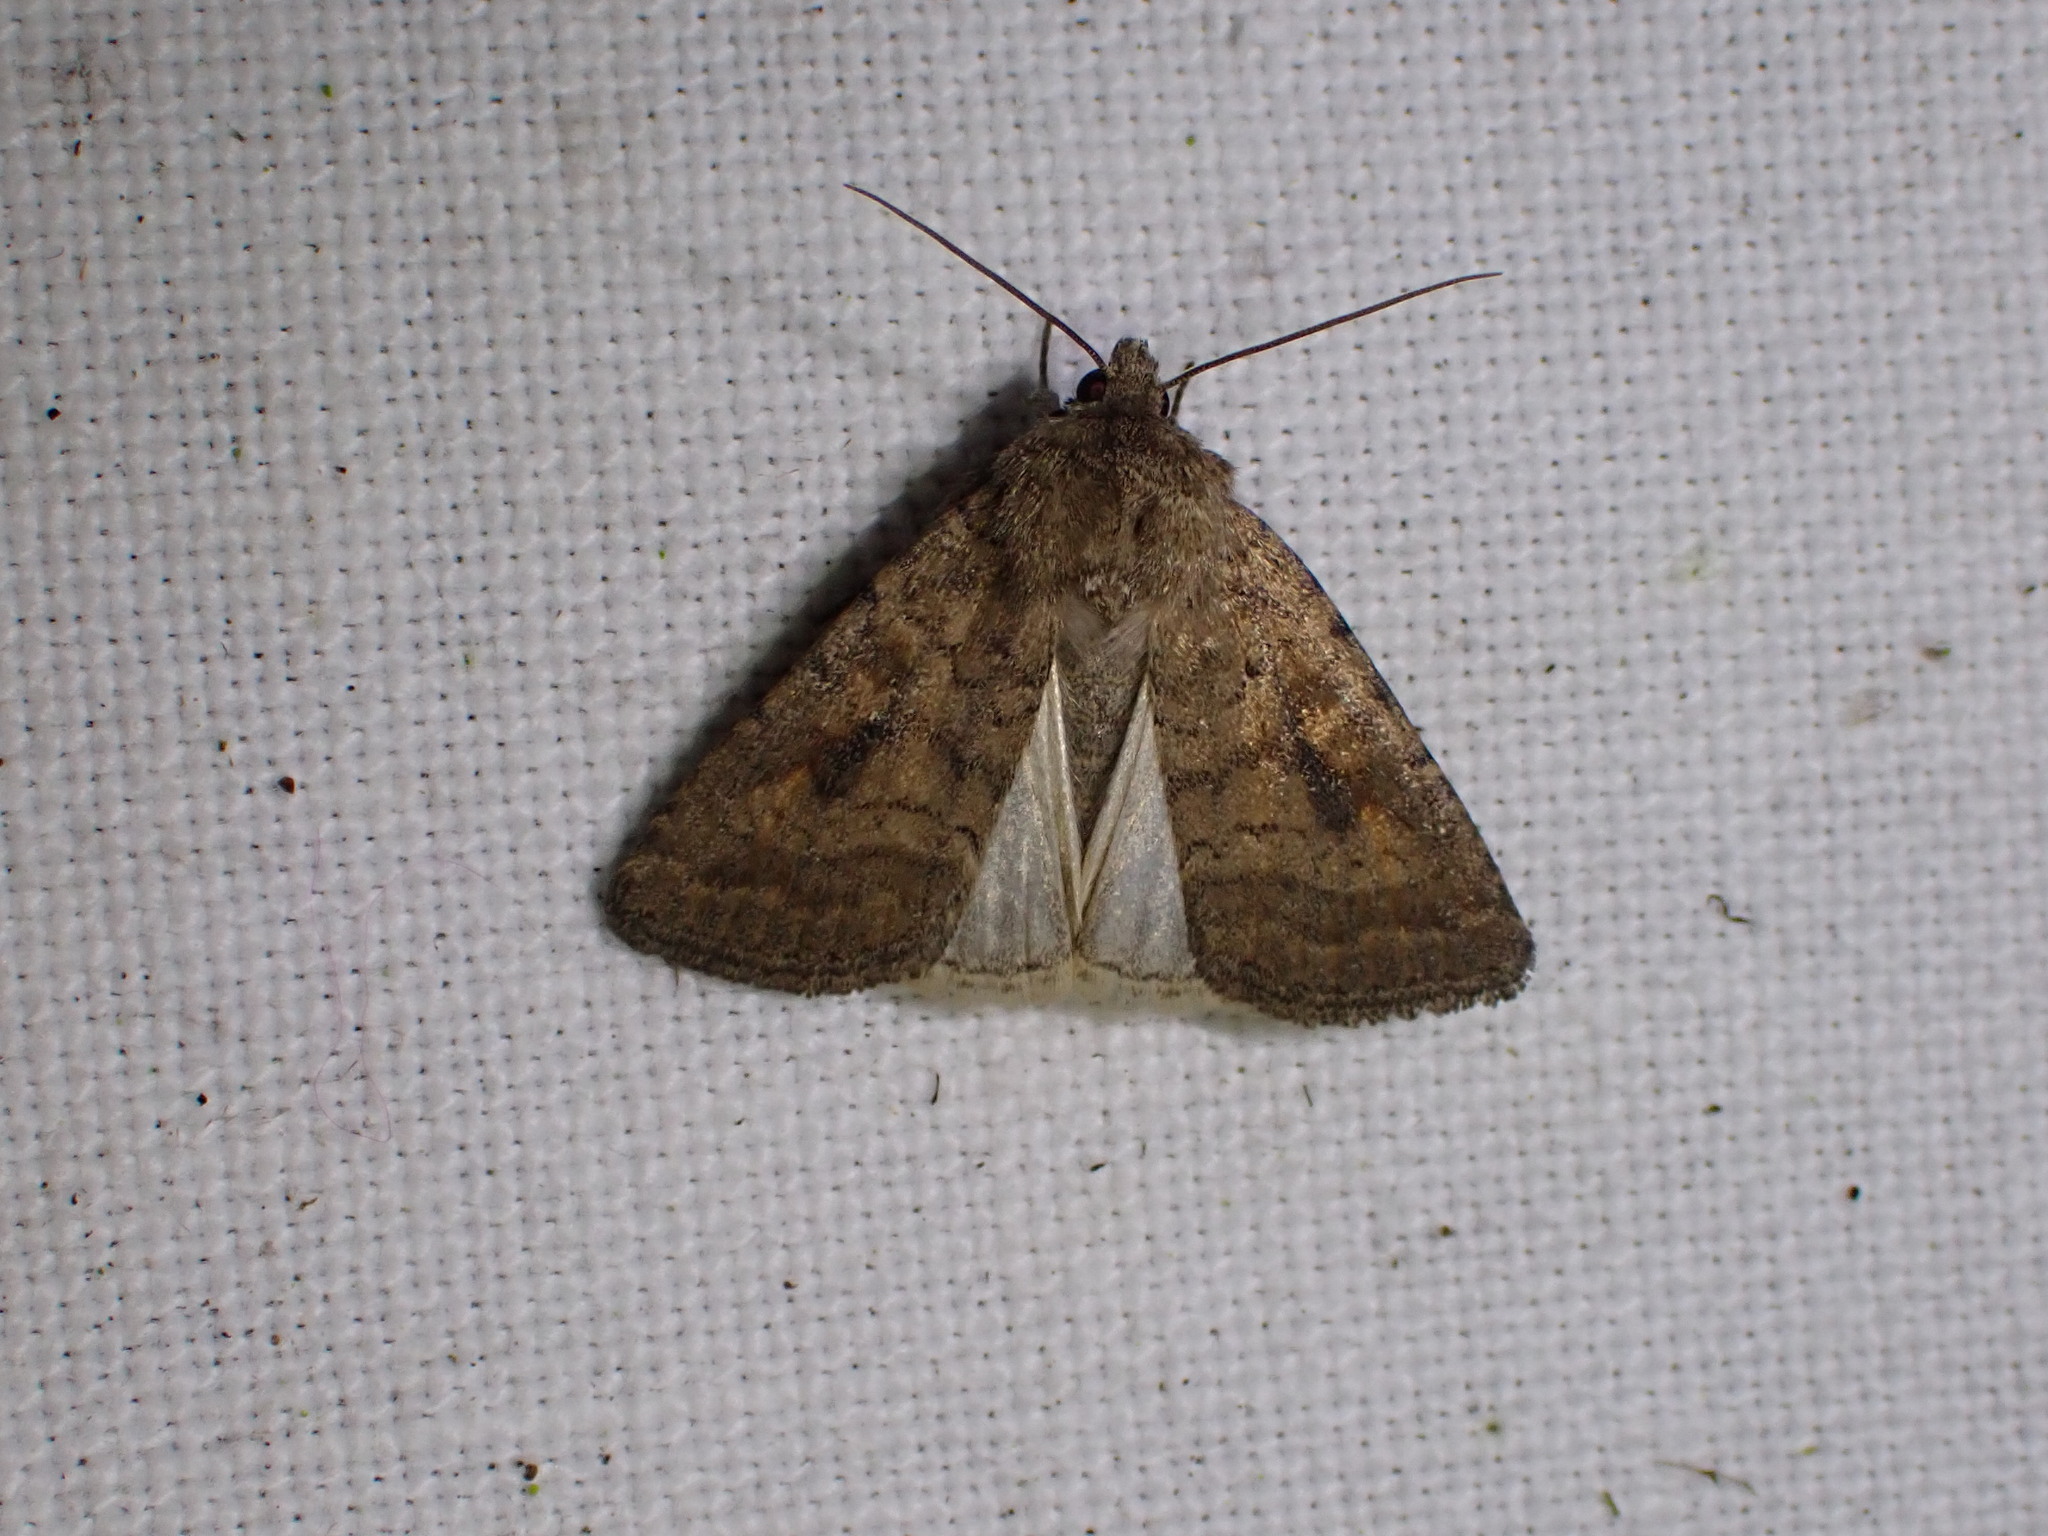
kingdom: Animalia
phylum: Arthropoda
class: Insecta
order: Lepidoptera
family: Noctuidae
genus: Caradrina
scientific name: Caradrina morpheus
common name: Mottled rustic
